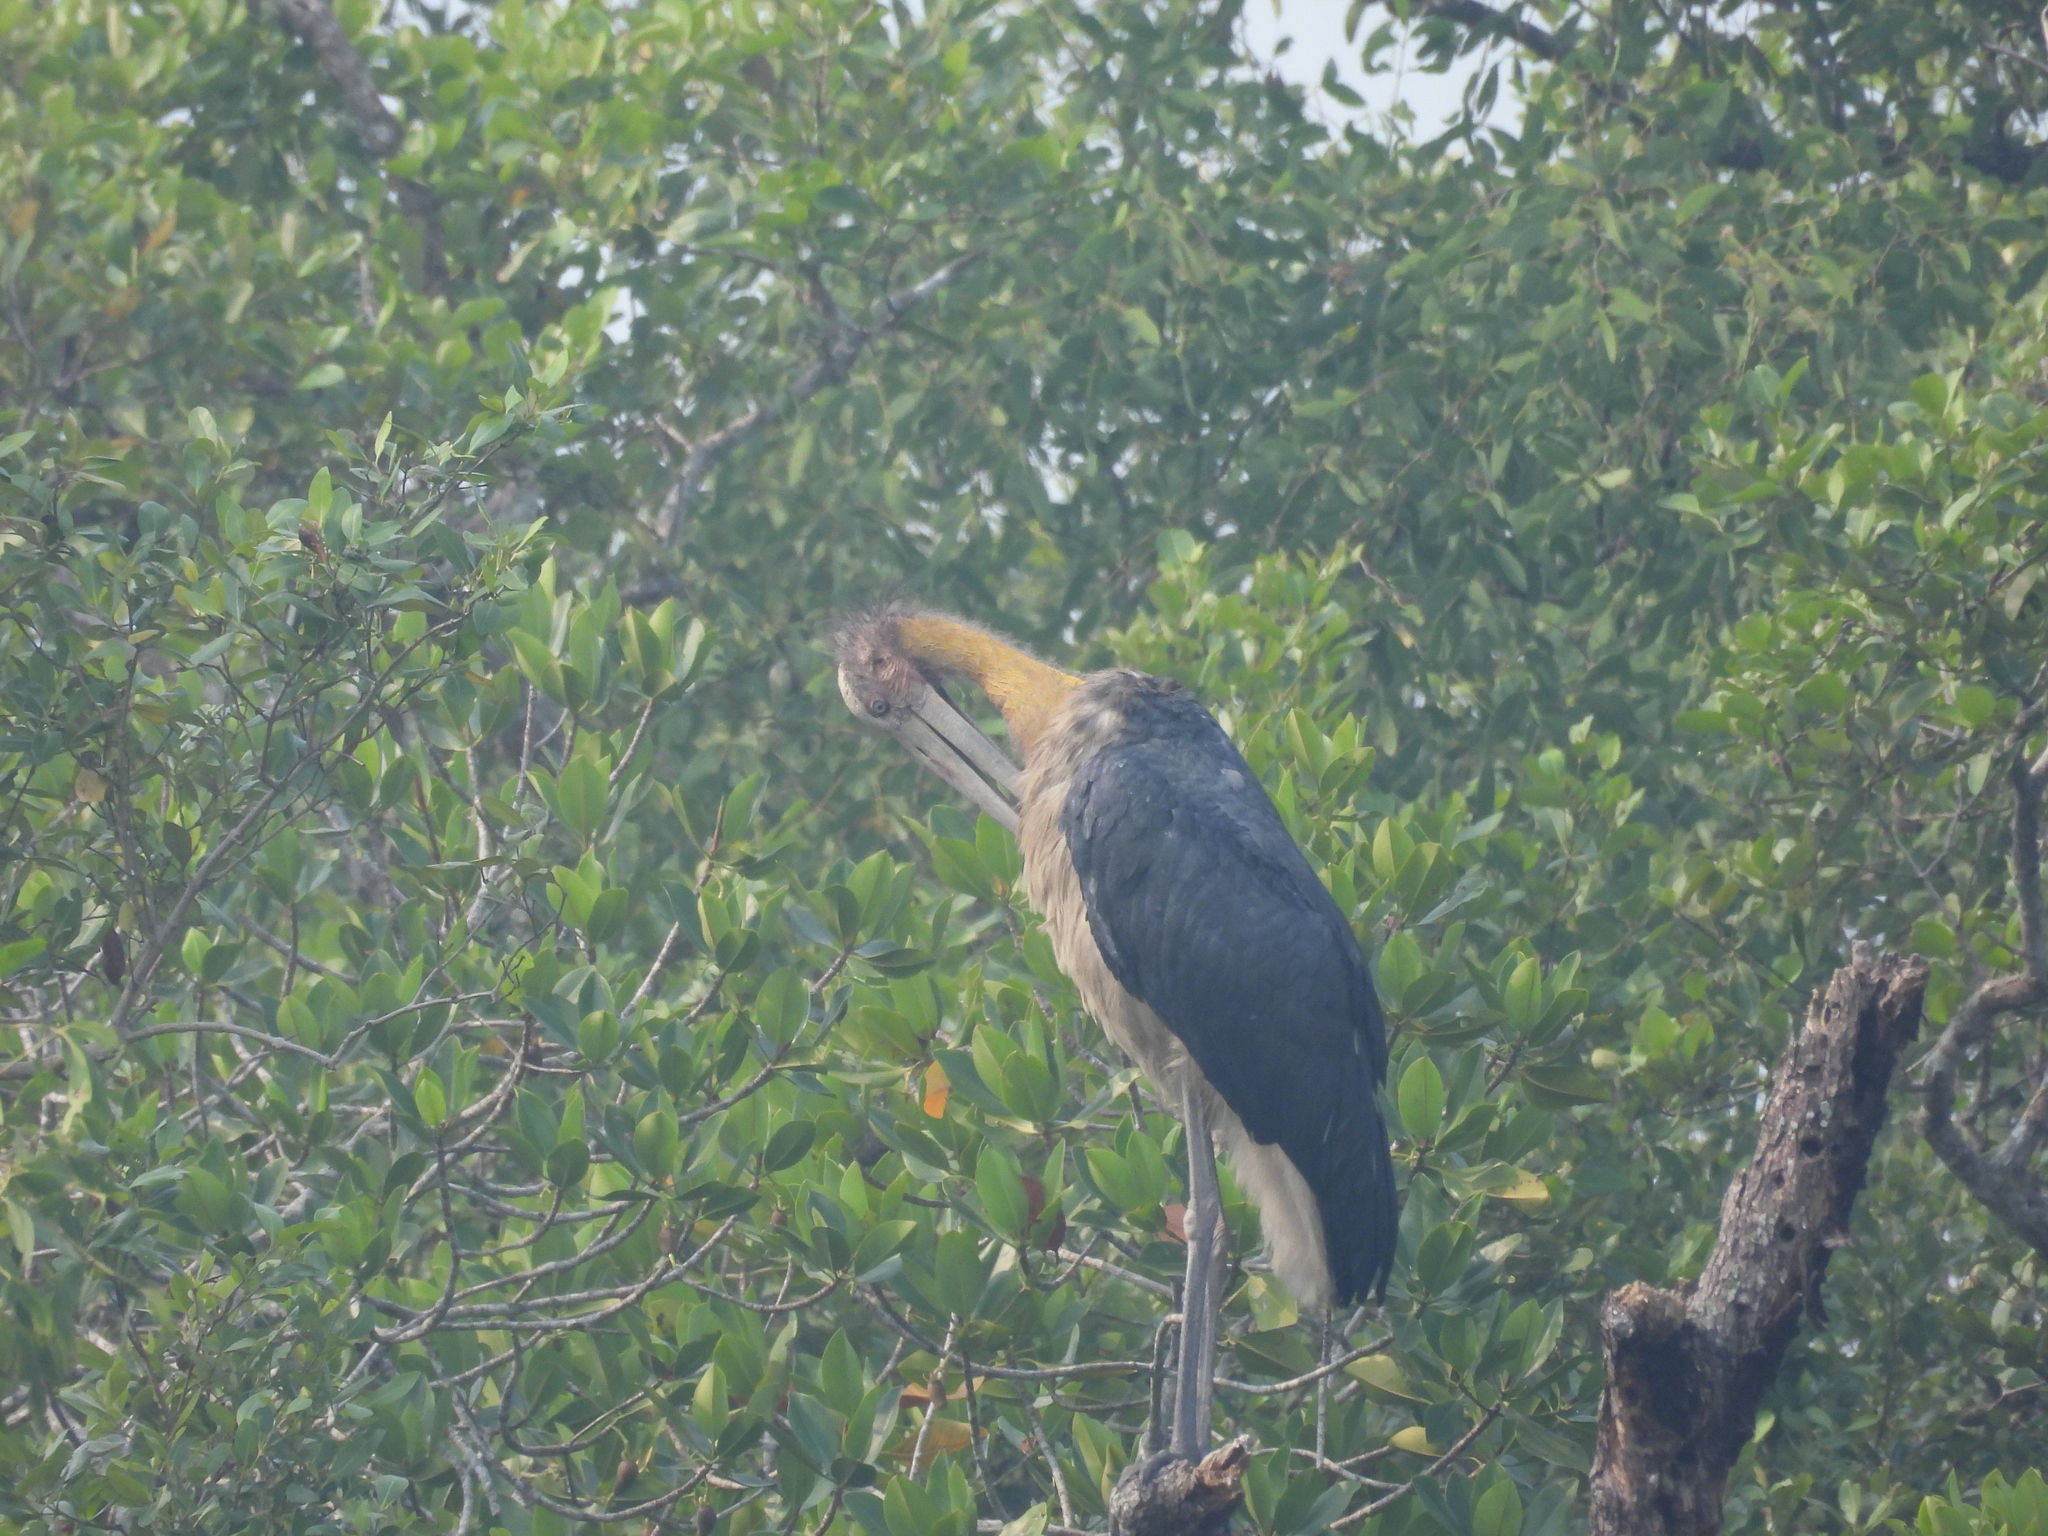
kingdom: Animalia
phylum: Chordata
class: Aves
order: Ciconiiformes
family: Ciconiidae
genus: Leptoptilos
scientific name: Leptoptilos javanicus
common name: Lesser adjutant
